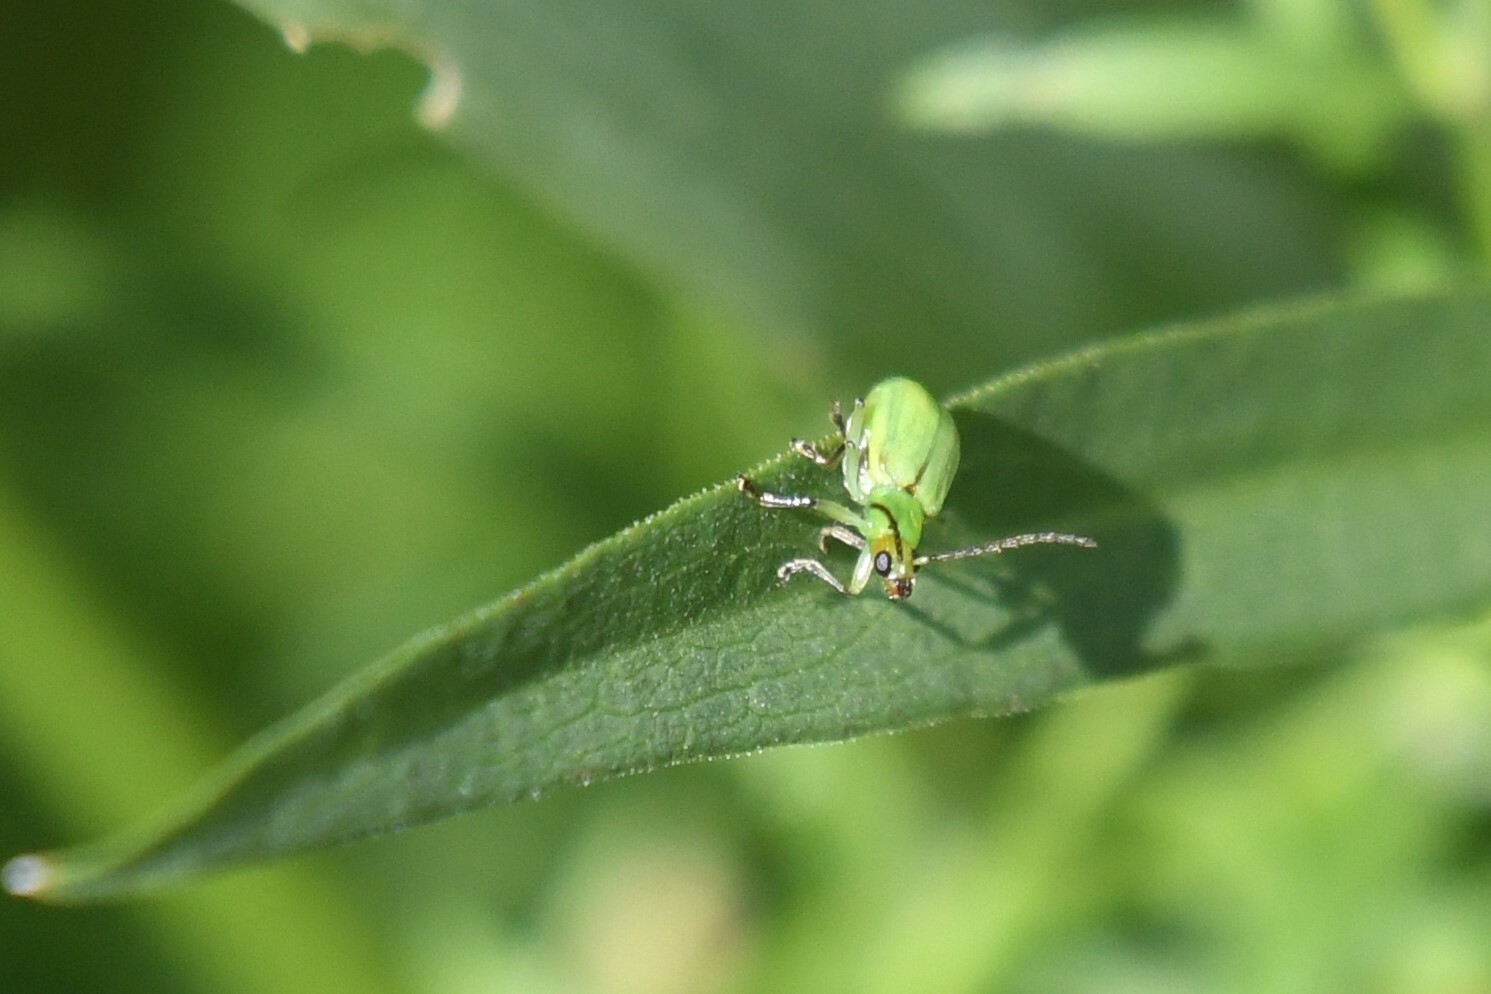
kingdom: Animalia
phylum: Arthropoda
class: Insecta
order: Coleoptera
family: Chrysomelidae
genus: Diabrotica
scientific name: Diabrotica barberi
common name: Northern corn rootworm
